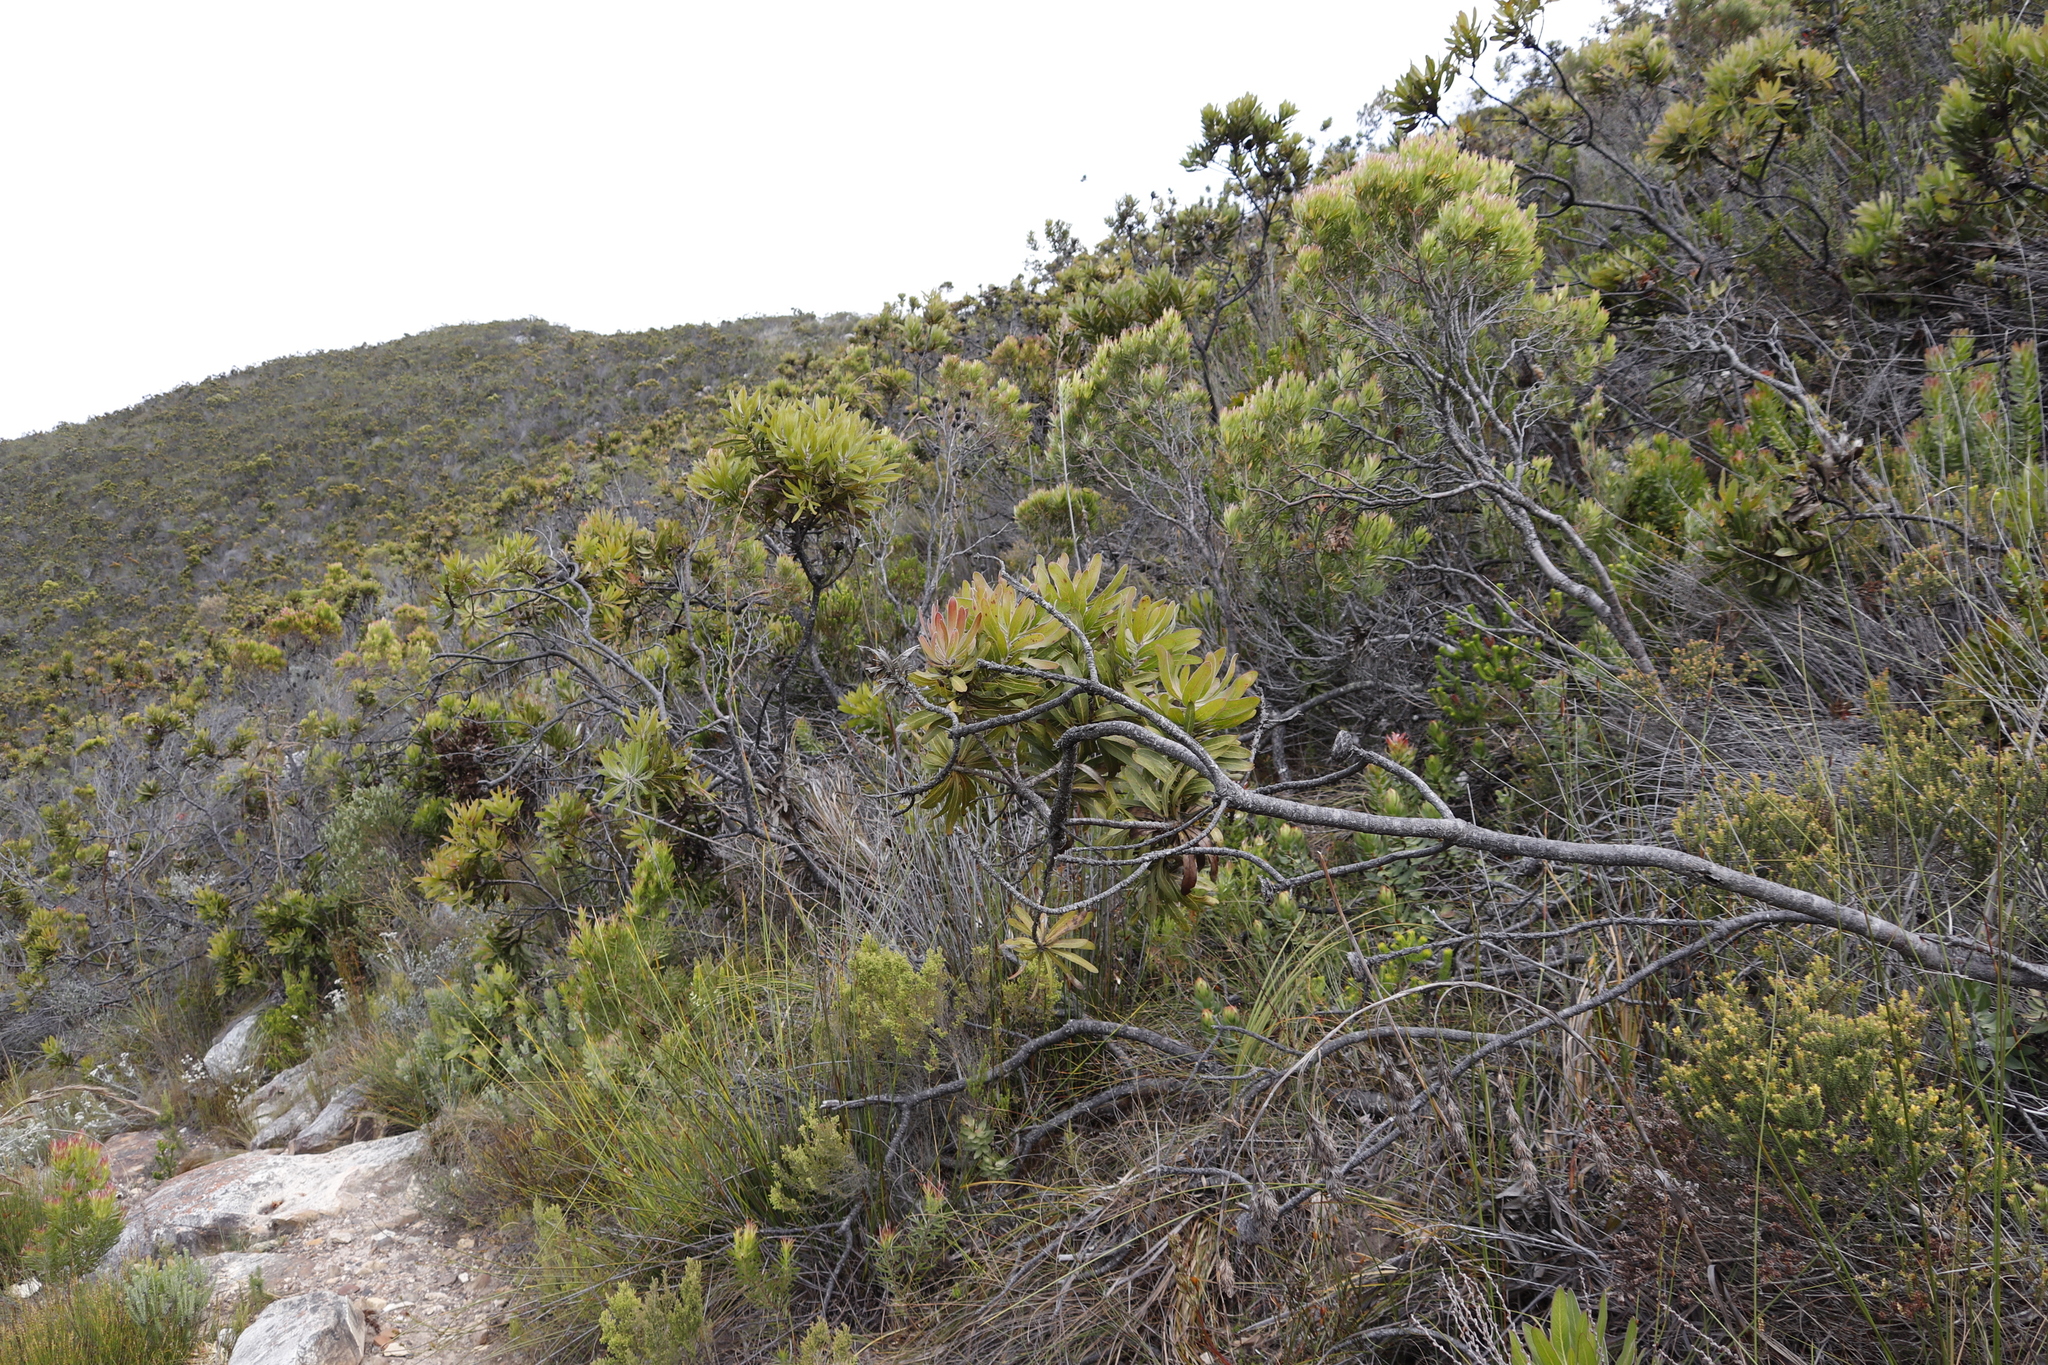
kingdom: Plantae
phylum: Tracheophyta
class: Magnoliopsida
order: Proteales
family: Proteaceae
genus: Protea
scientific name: Protea neriifolia
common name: Blue sugarbush
